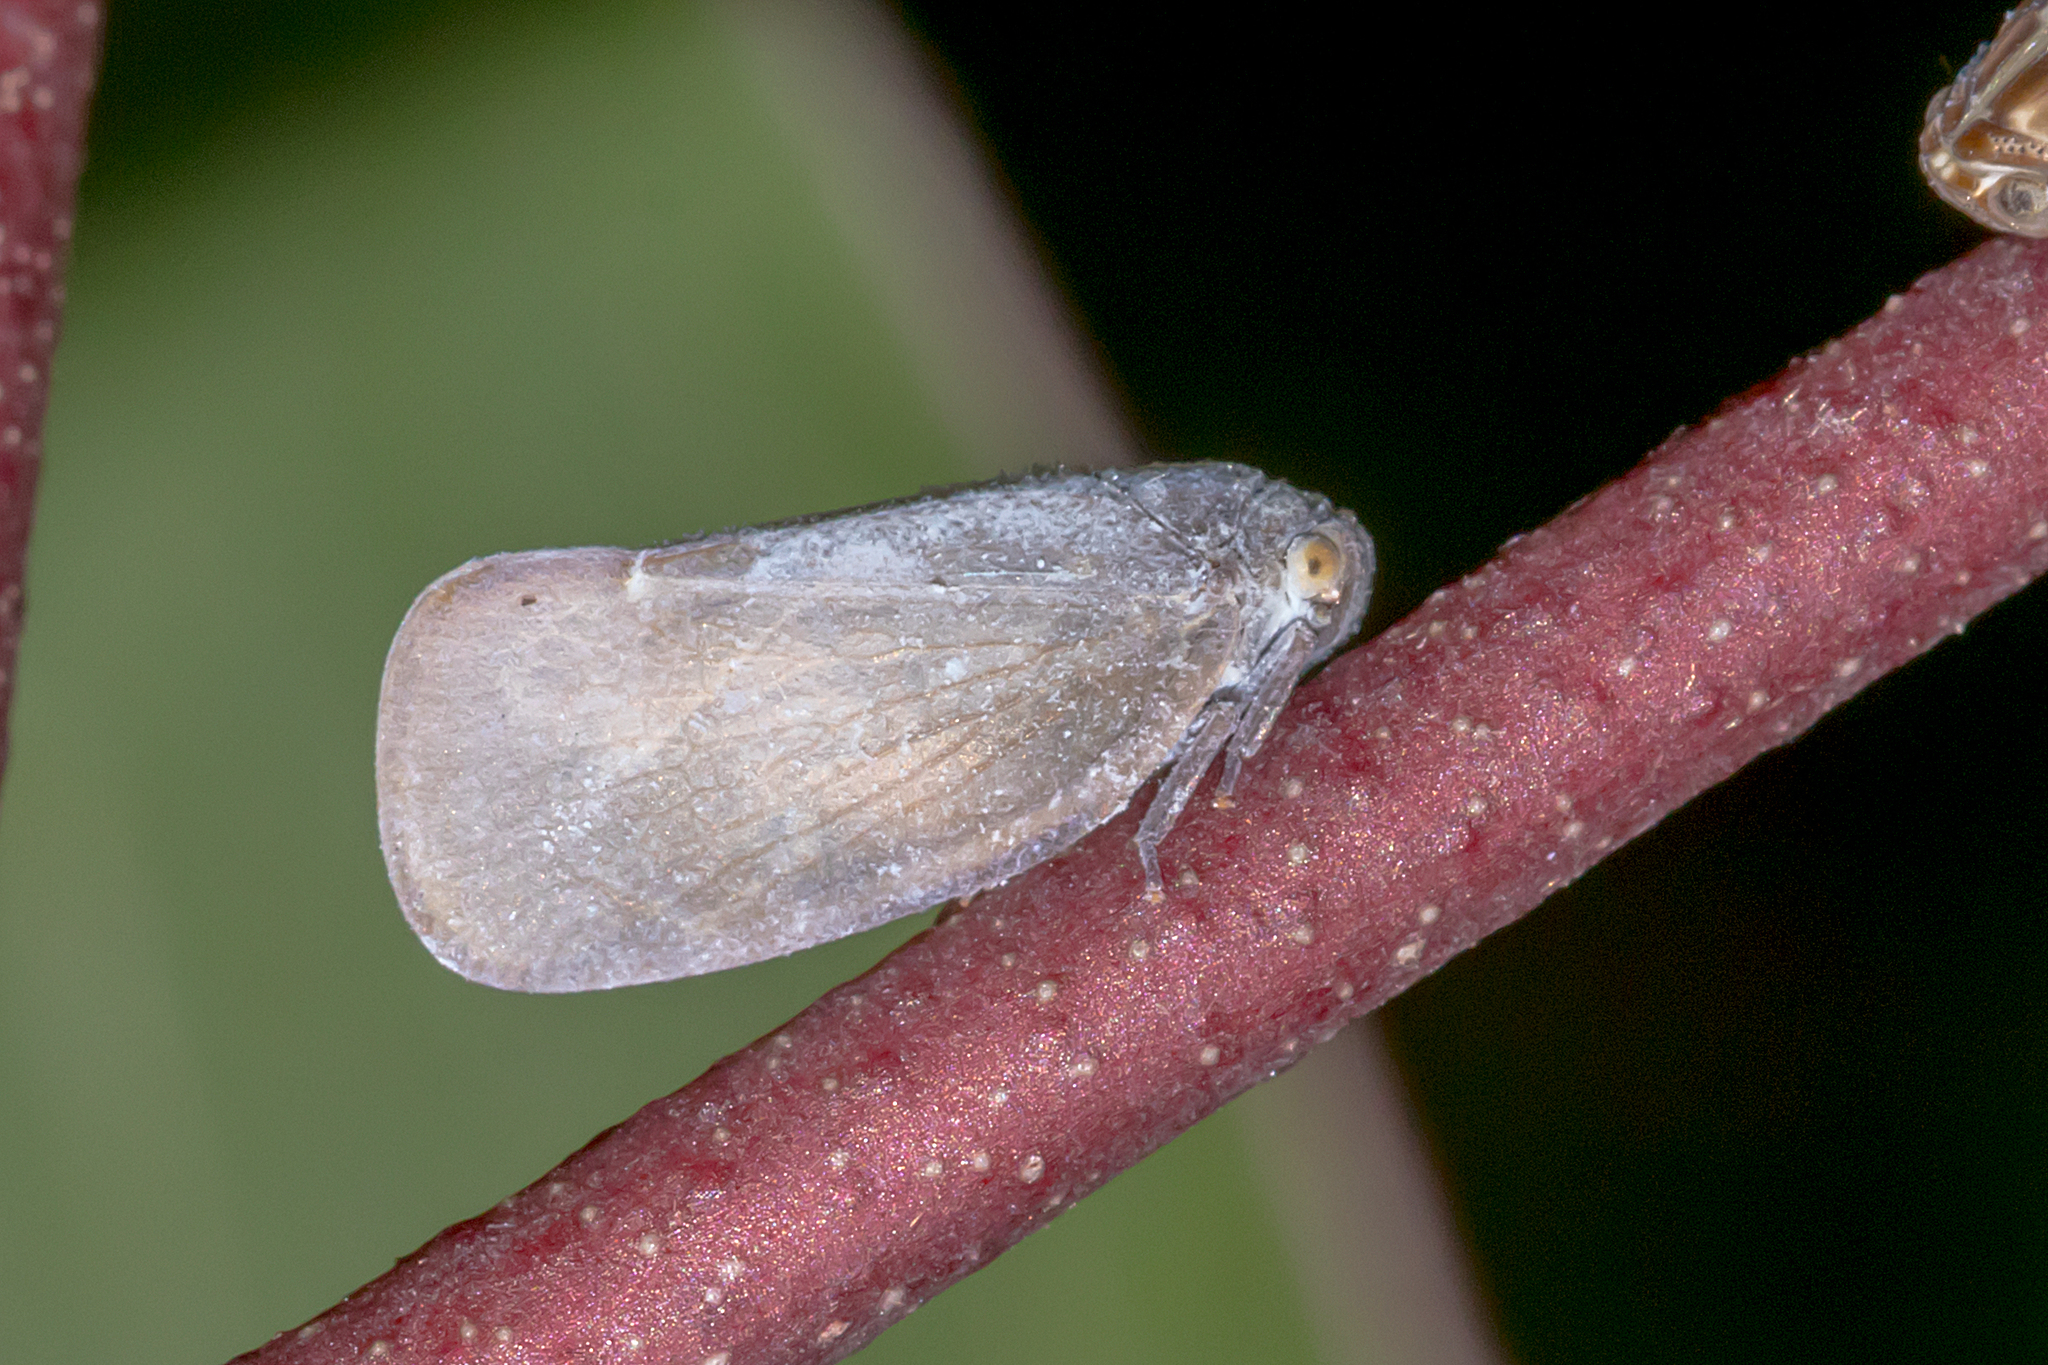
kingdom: Animalia
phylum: Arthropoda
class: Insecta
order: Hemiptera
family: Flatidae
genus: Anzora
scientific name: Anzora unicolor
